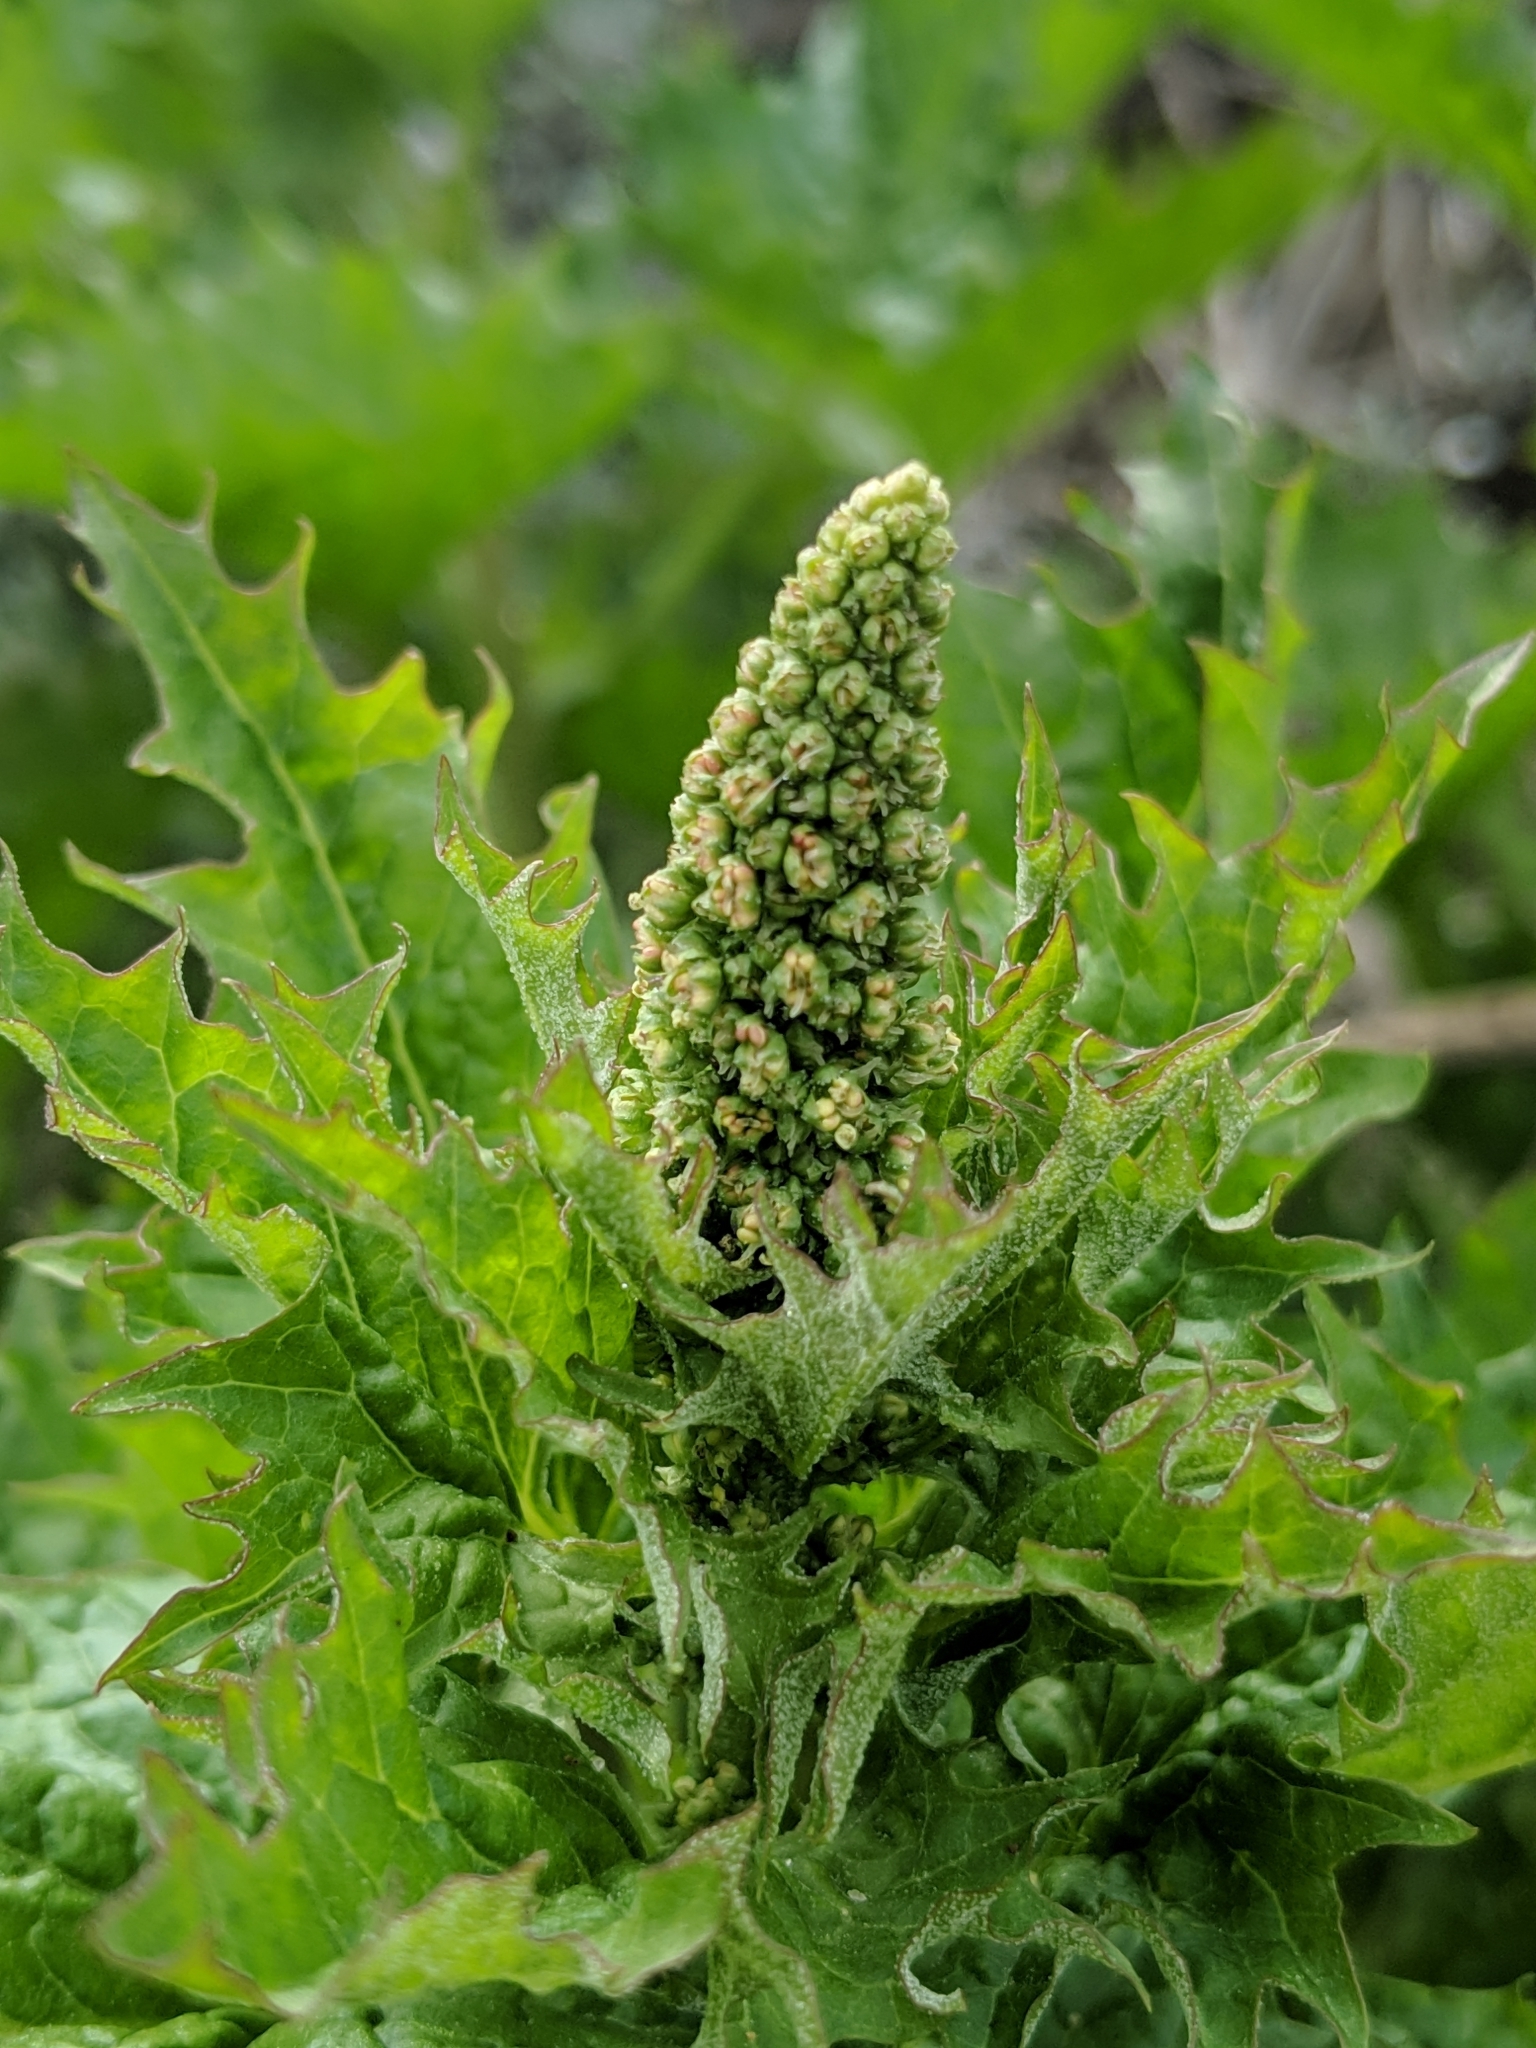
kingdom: Plantae
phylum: Tracheophyta
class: Magnoliopsida
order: Caryophyllales
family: Amaranthaceae
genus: Blitum
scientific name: Blitum californicum
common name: California goosefoot
